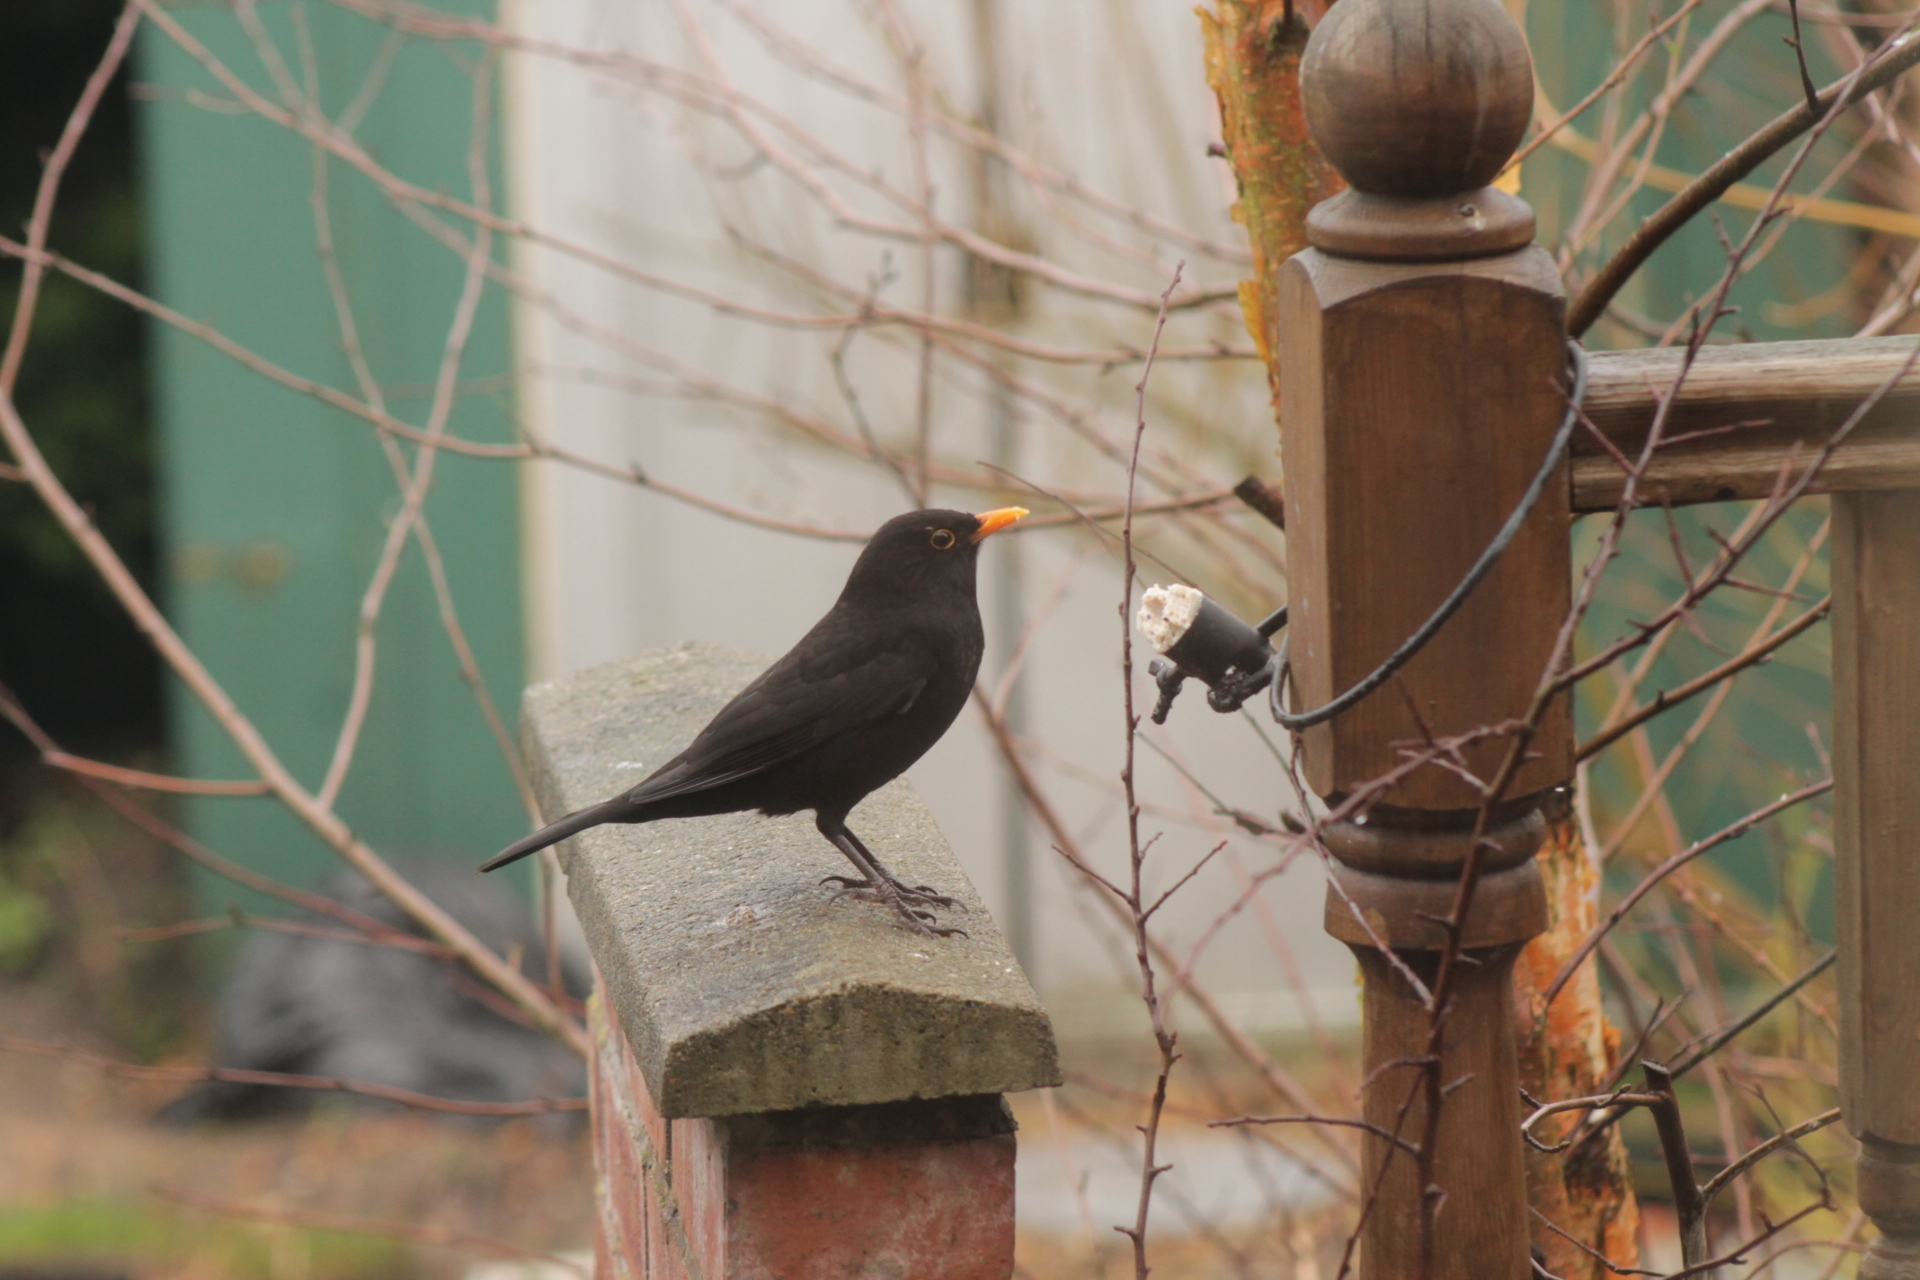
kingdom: Animalia
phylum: Chordata
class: Aves
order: Passeriformes
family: Turdidae
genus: Turdus
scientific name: Turdus merula
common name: Common blackbird
